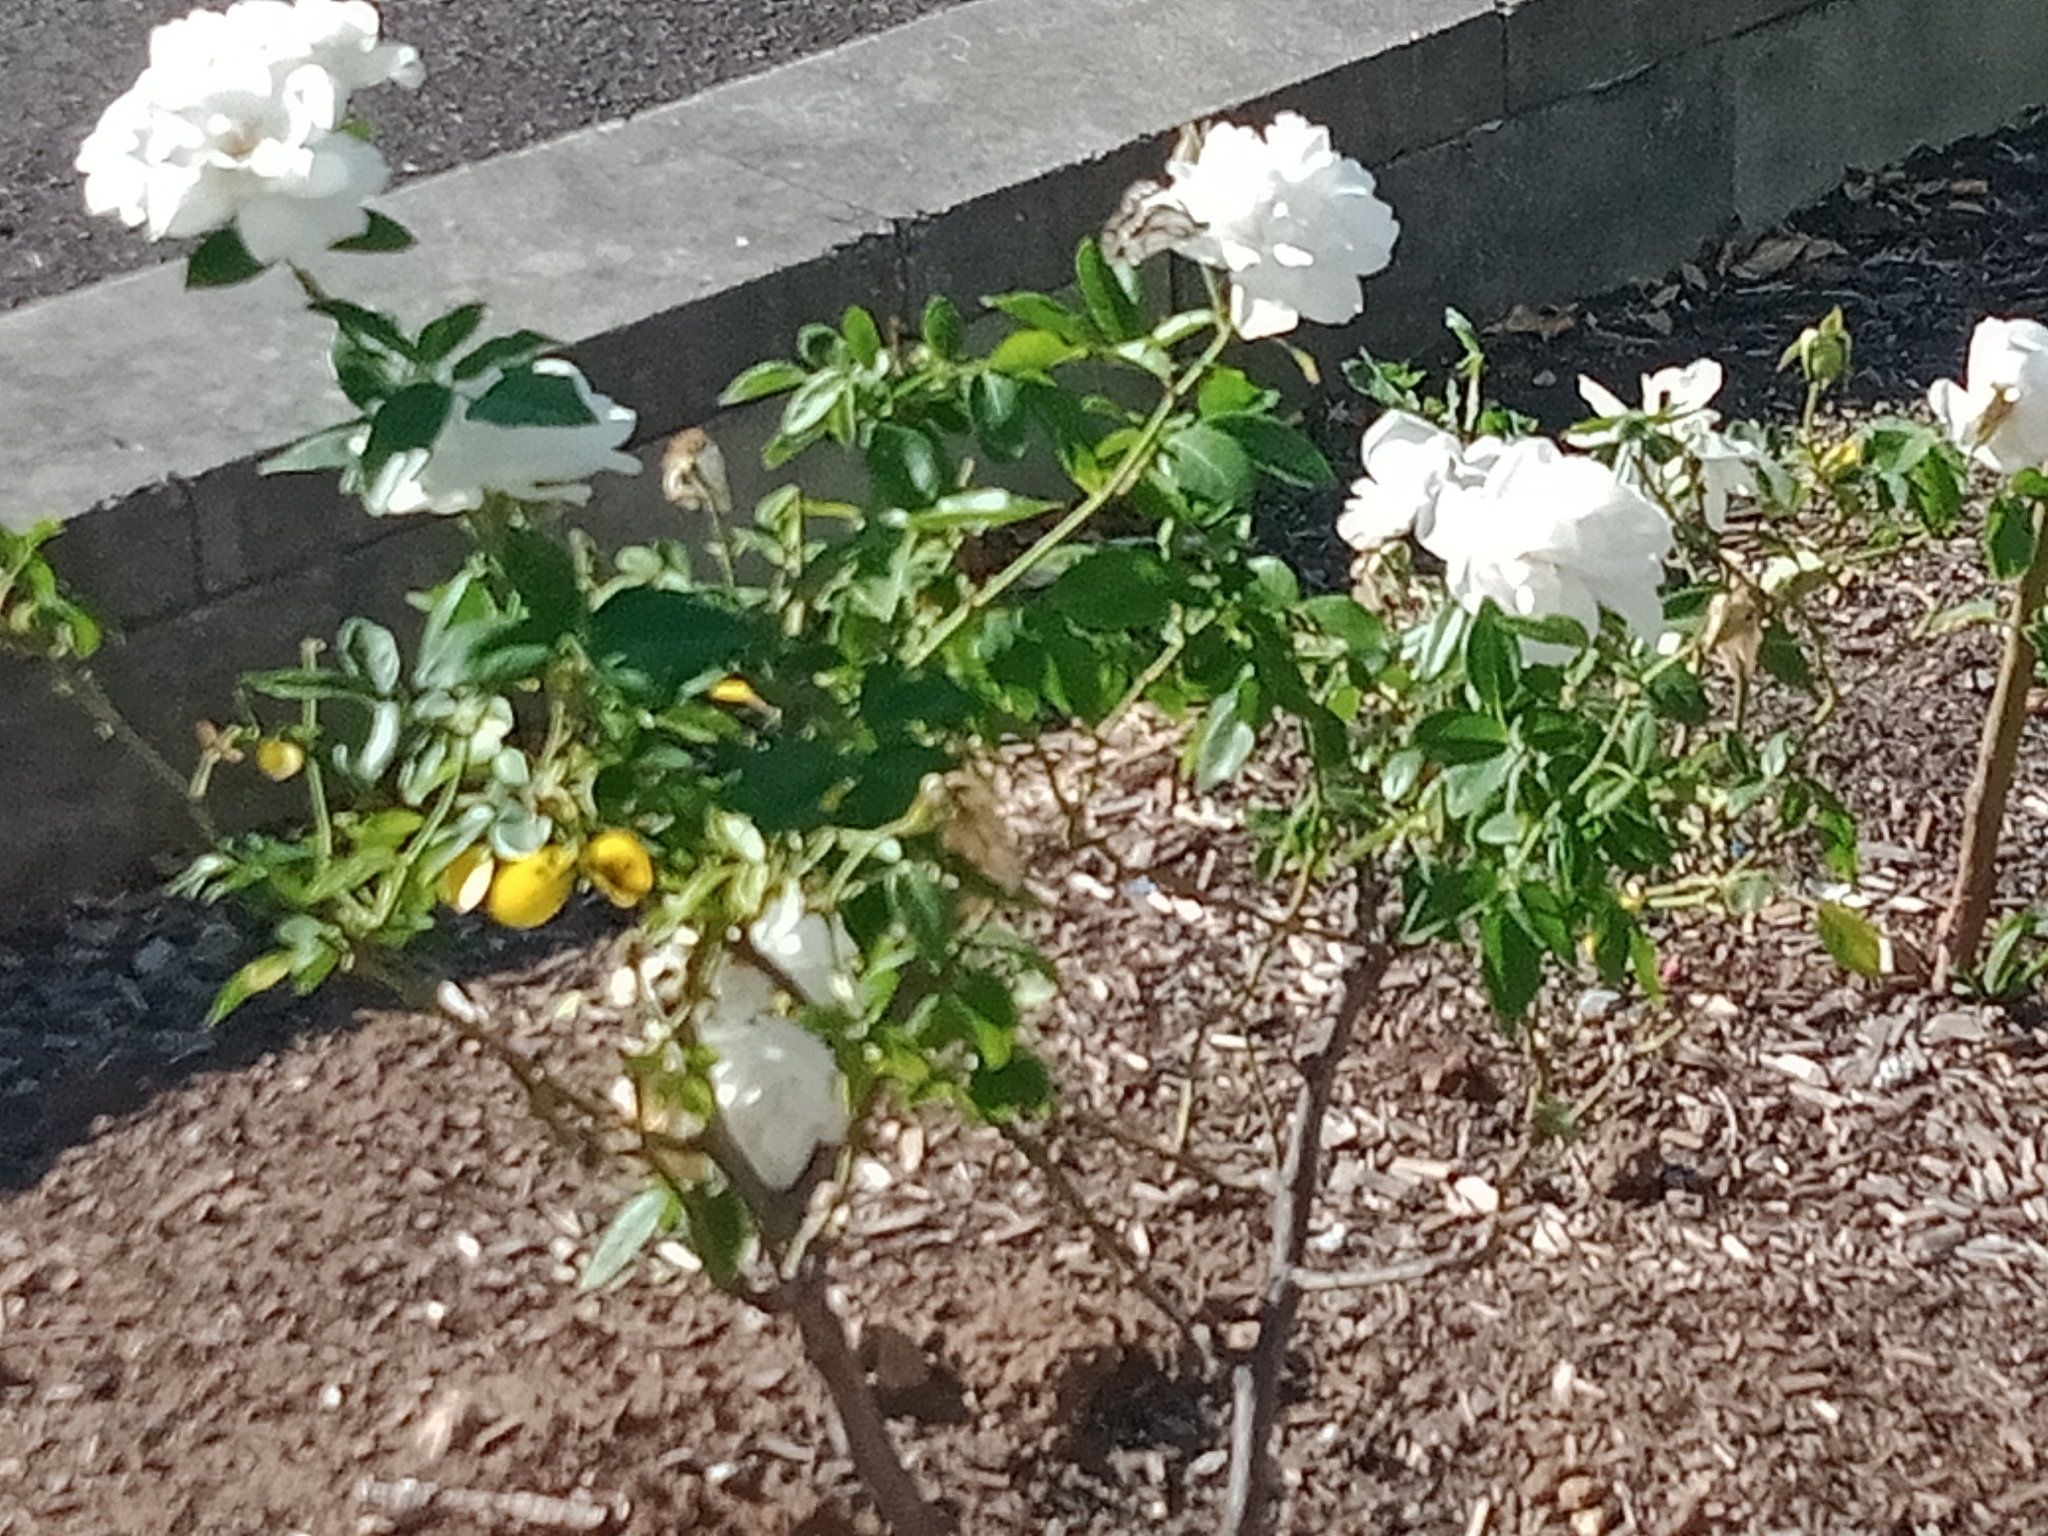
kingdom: Animalia
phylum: Arthropoda
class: Insecta
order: Lepidoptera
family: Pieridae
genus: Belenois
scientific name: Belenois java
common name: Caper white
